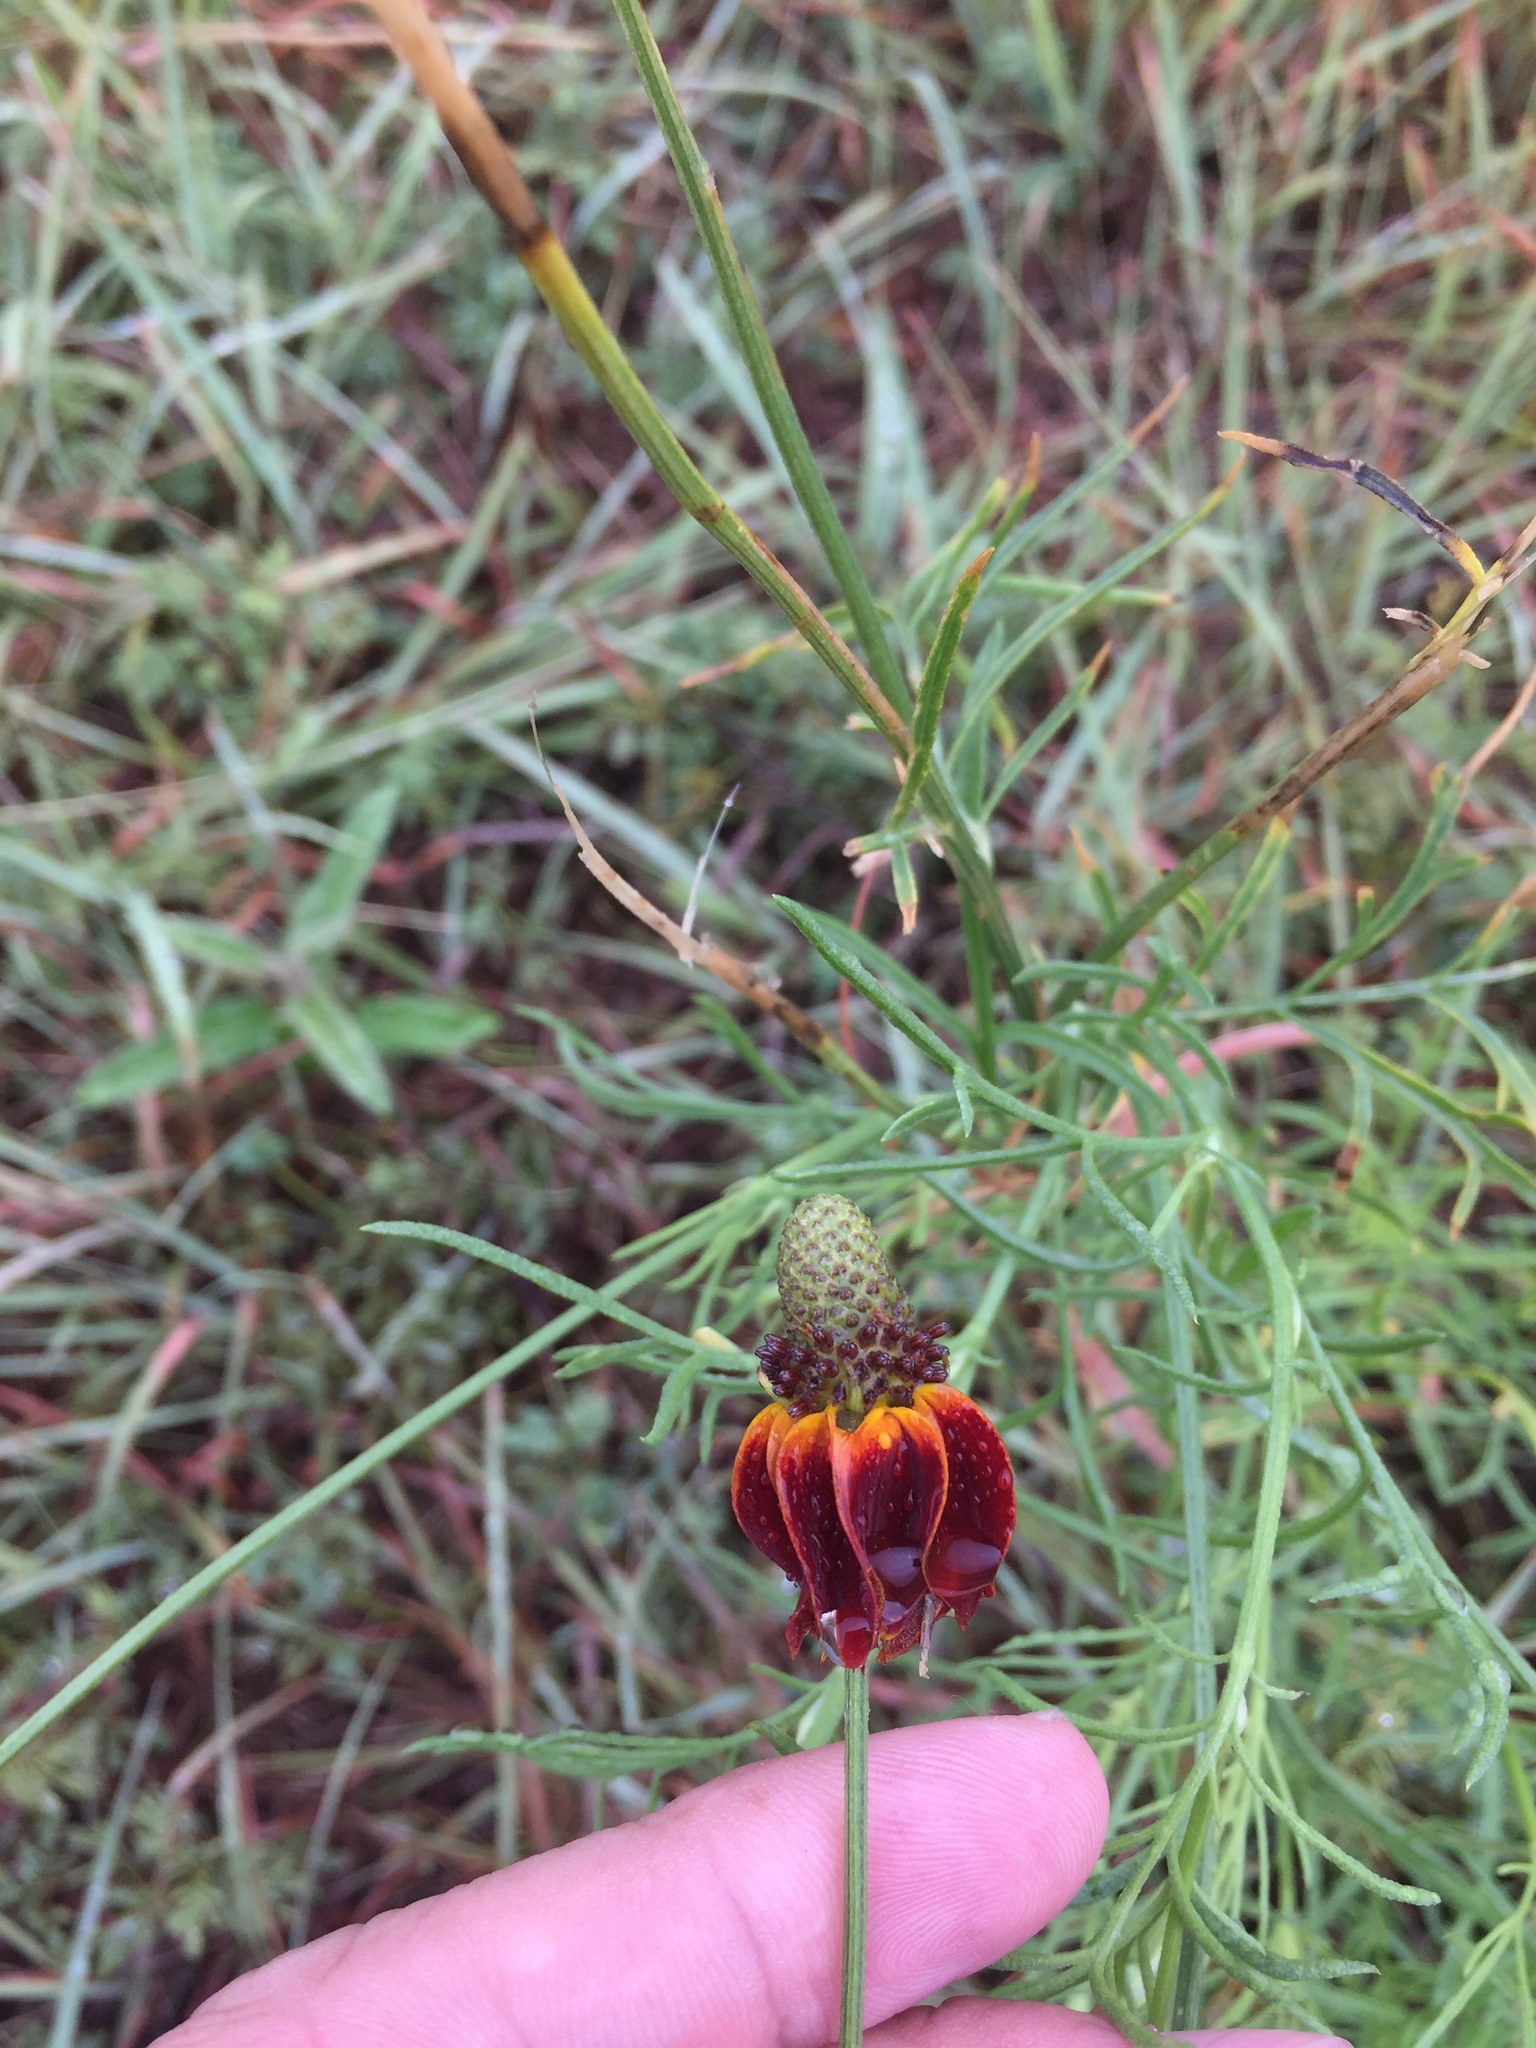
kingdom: Plantae
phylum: Tracheophyta
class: Magnoliopsida
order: Asterales
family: Asteraceae
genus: Ratibida
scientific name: Ratibida columnifera
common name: Prairie coneflower
